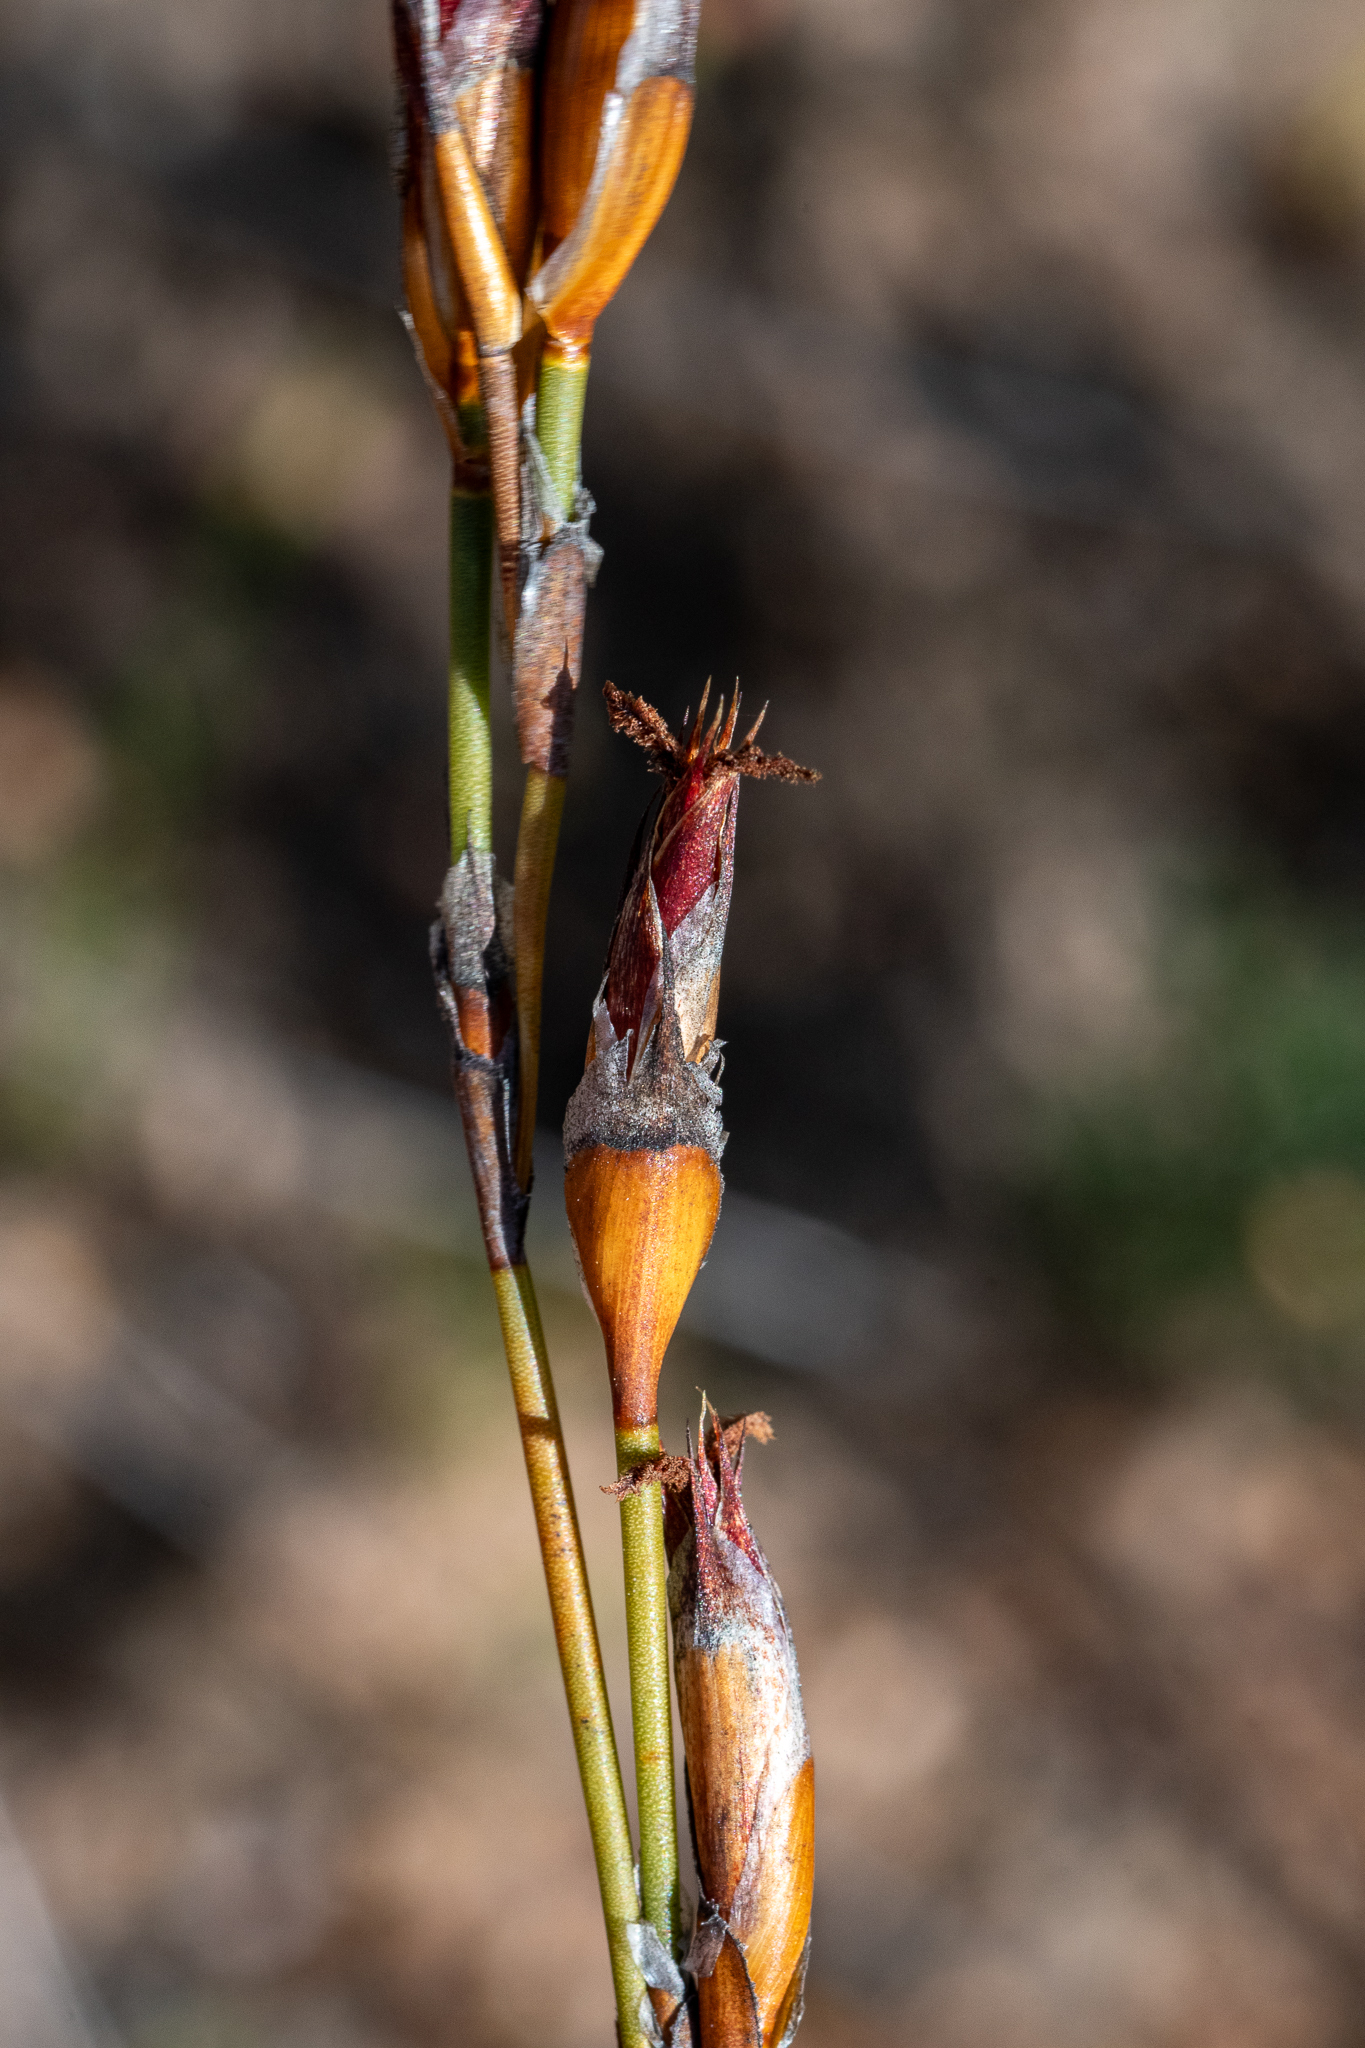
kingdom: Plantae
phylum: Tracheophyta
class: Liliopsida
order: Poales
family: Restionaceae
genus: Willdenowia
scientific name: Willdenowia arescens
